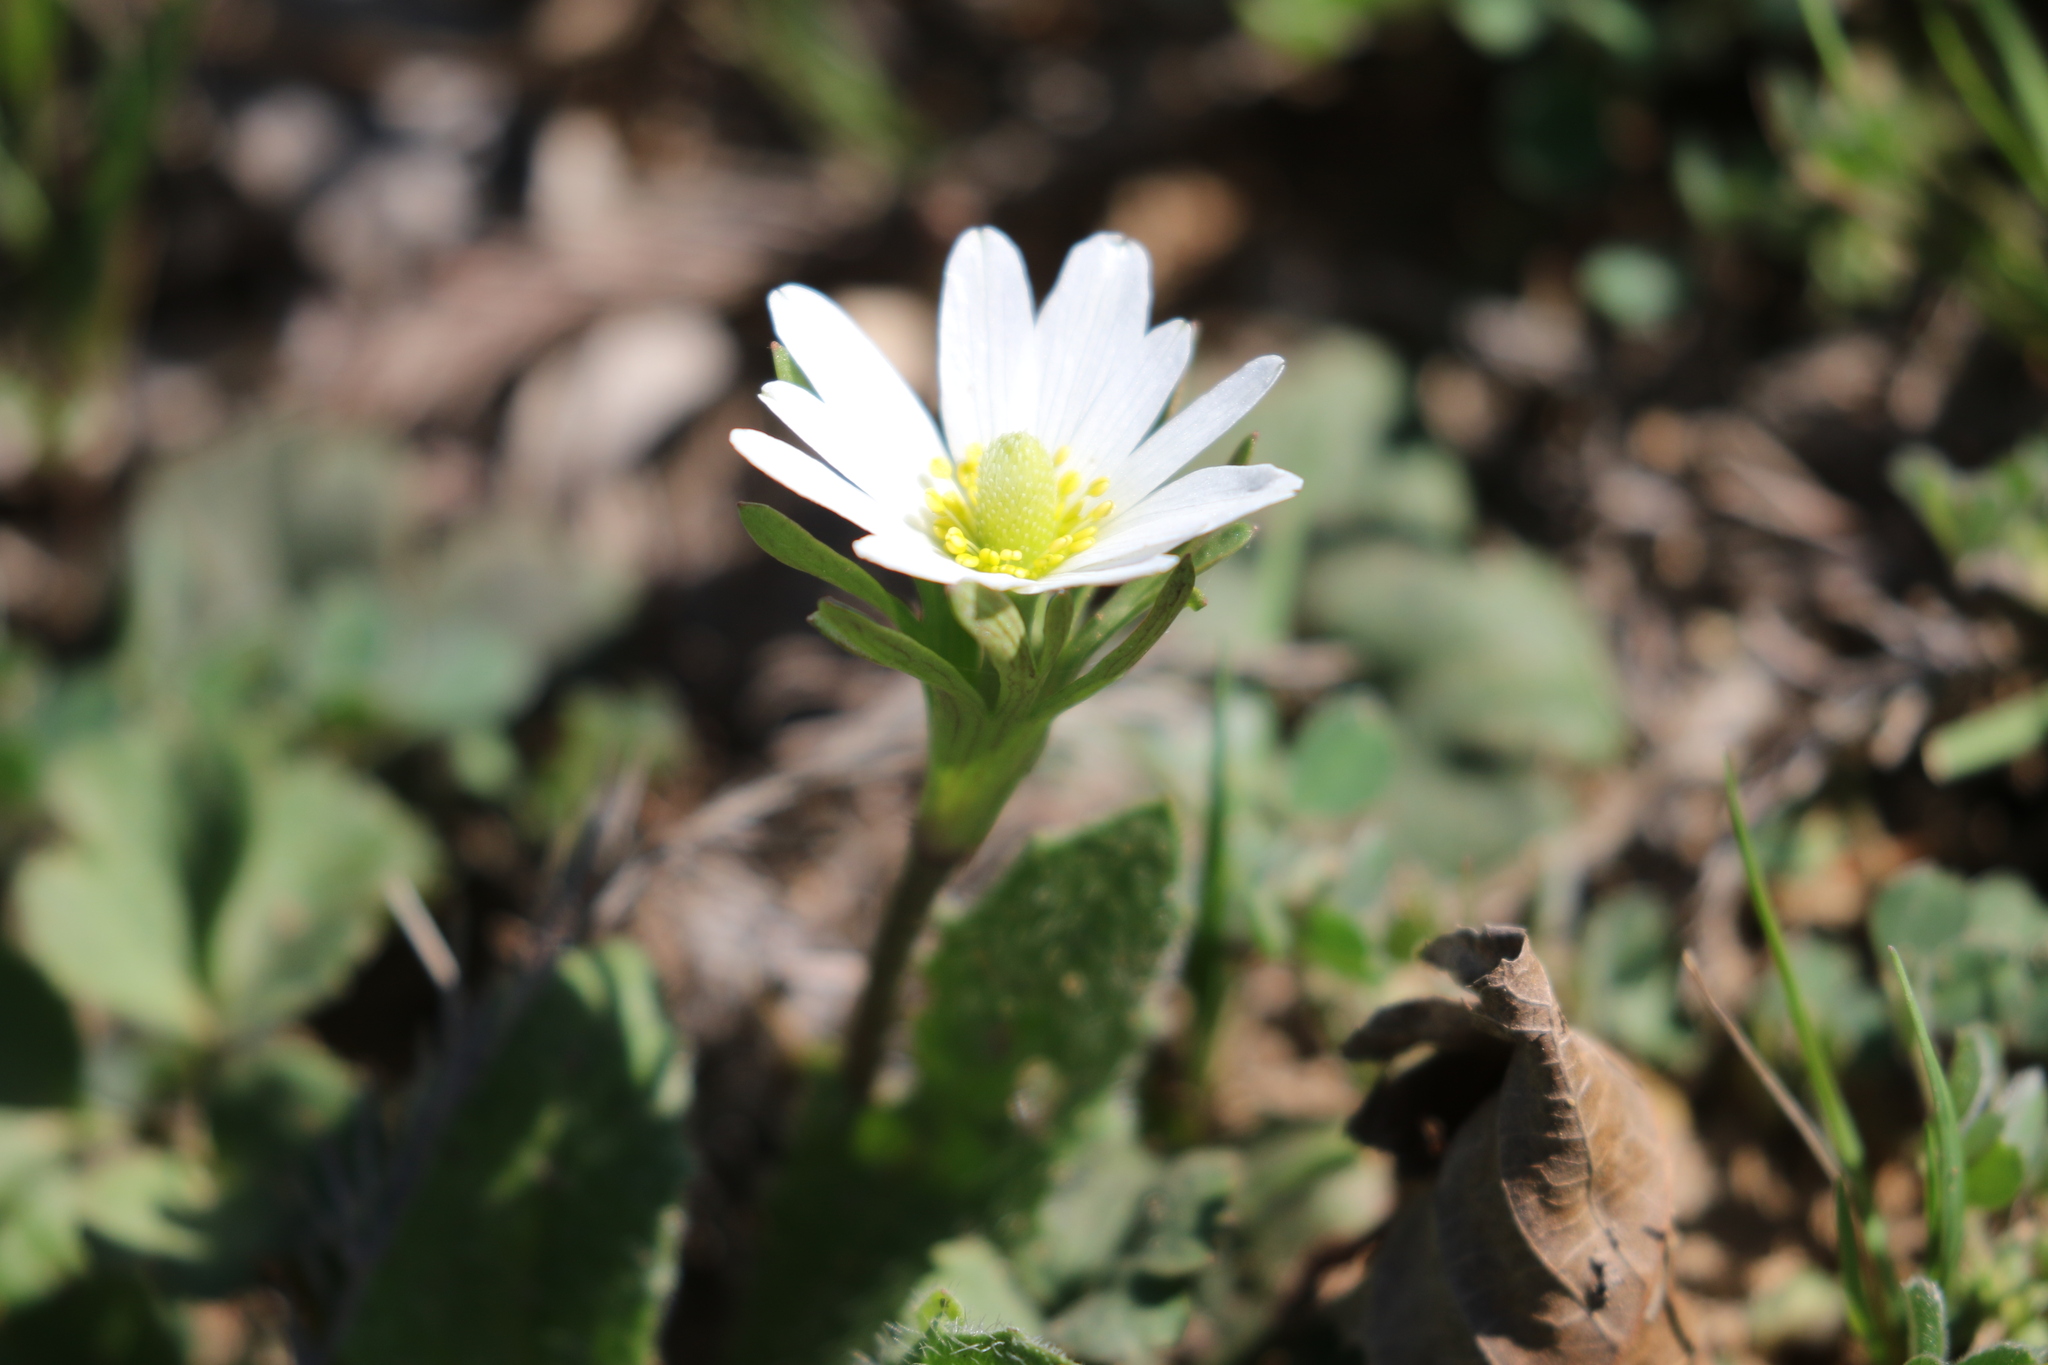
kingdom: Plantae
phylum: Tracheophyta
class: Magnoliopsida
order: Ranunculales
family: Ranunculaceae
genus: Anemone
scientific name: Anemone berlandieri
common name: Ten-petal anemone
